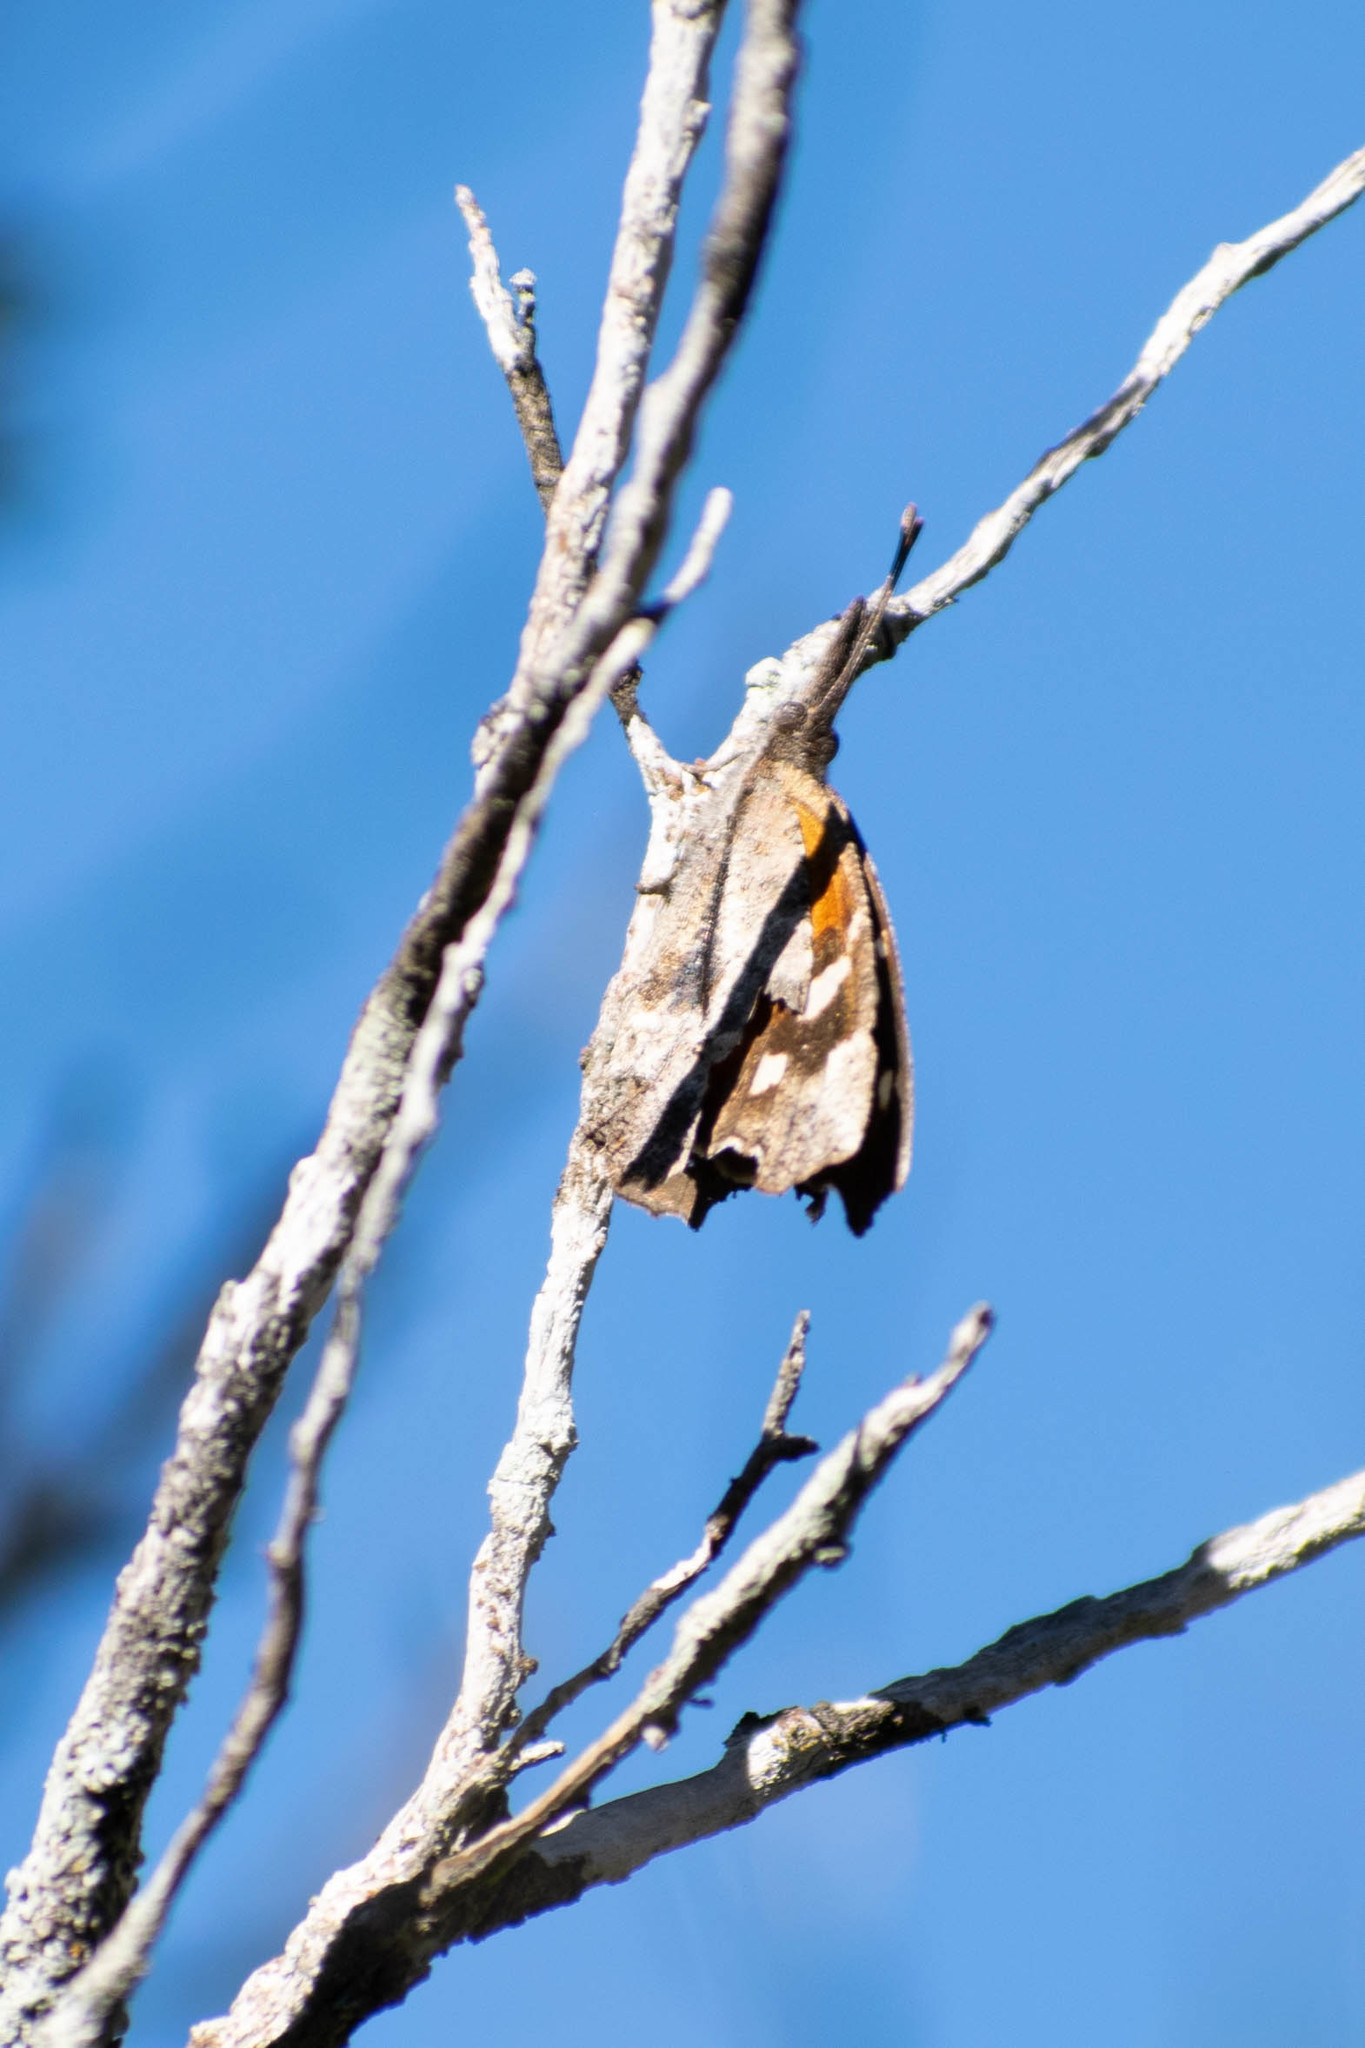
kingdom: Animalia
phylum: Arthropoda
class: Insecta
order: Lepidoptera
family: Nymphalidae
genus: Libytheana
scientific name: Libytheana carinenta
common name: American snout
